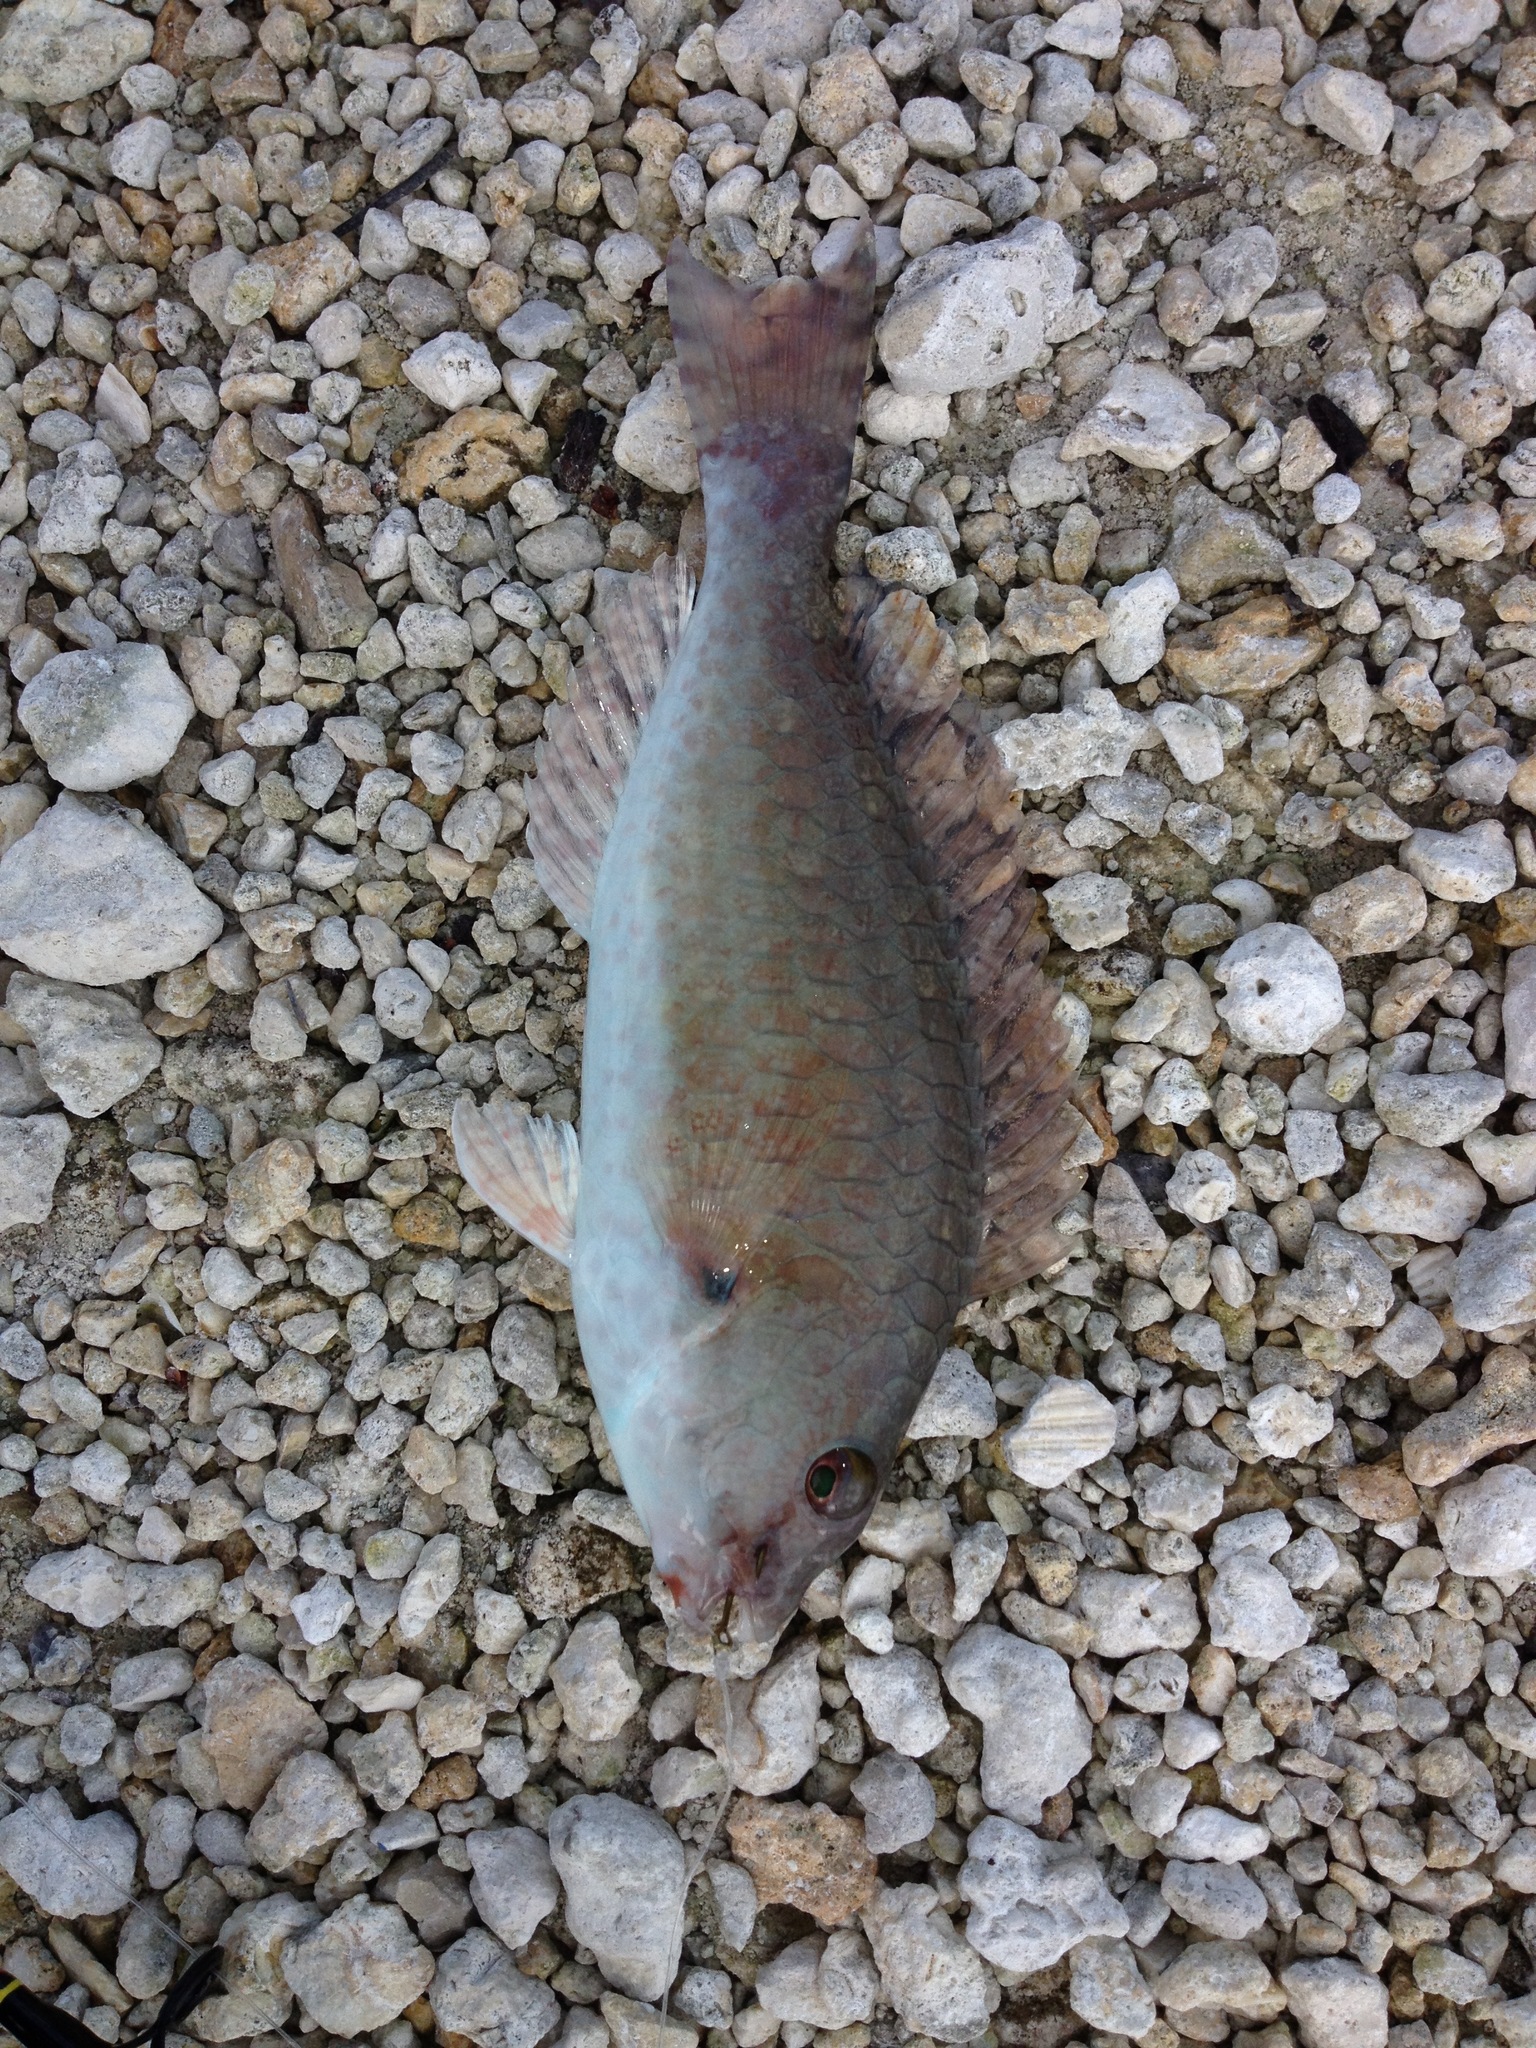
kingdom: Animalia
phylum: Chordata
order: Perciformes
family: Scaridae
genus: Sparisoma
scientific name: Sparisoma chrysopterum
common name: Redtail parrotfish
